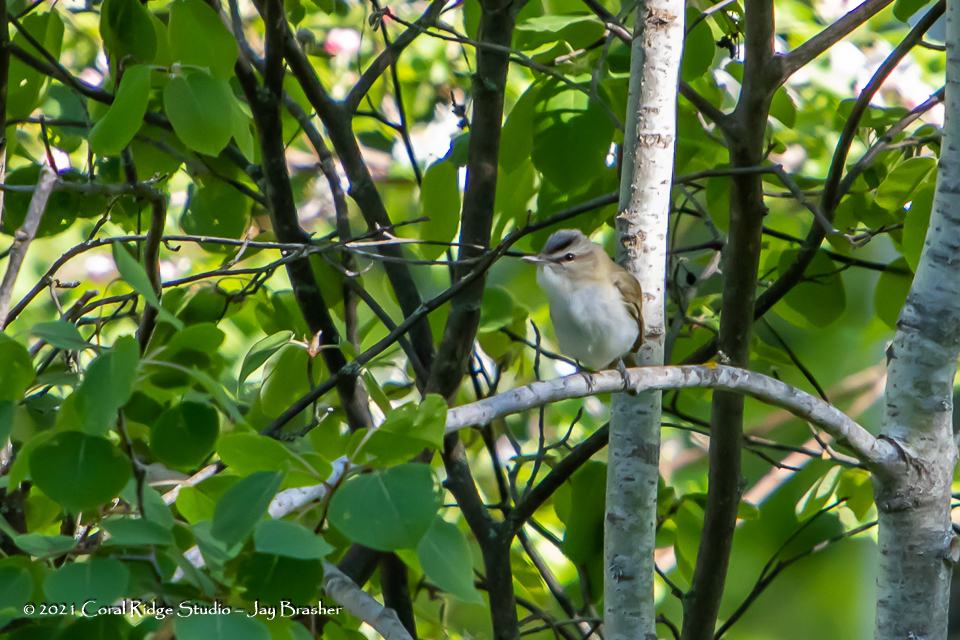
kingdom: Animalia
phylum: Chordata
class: Aves
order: Passeriformes
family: Vireonidae
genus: Vireo
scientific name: Vireo olivaceus
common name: Red-eyed vireo
